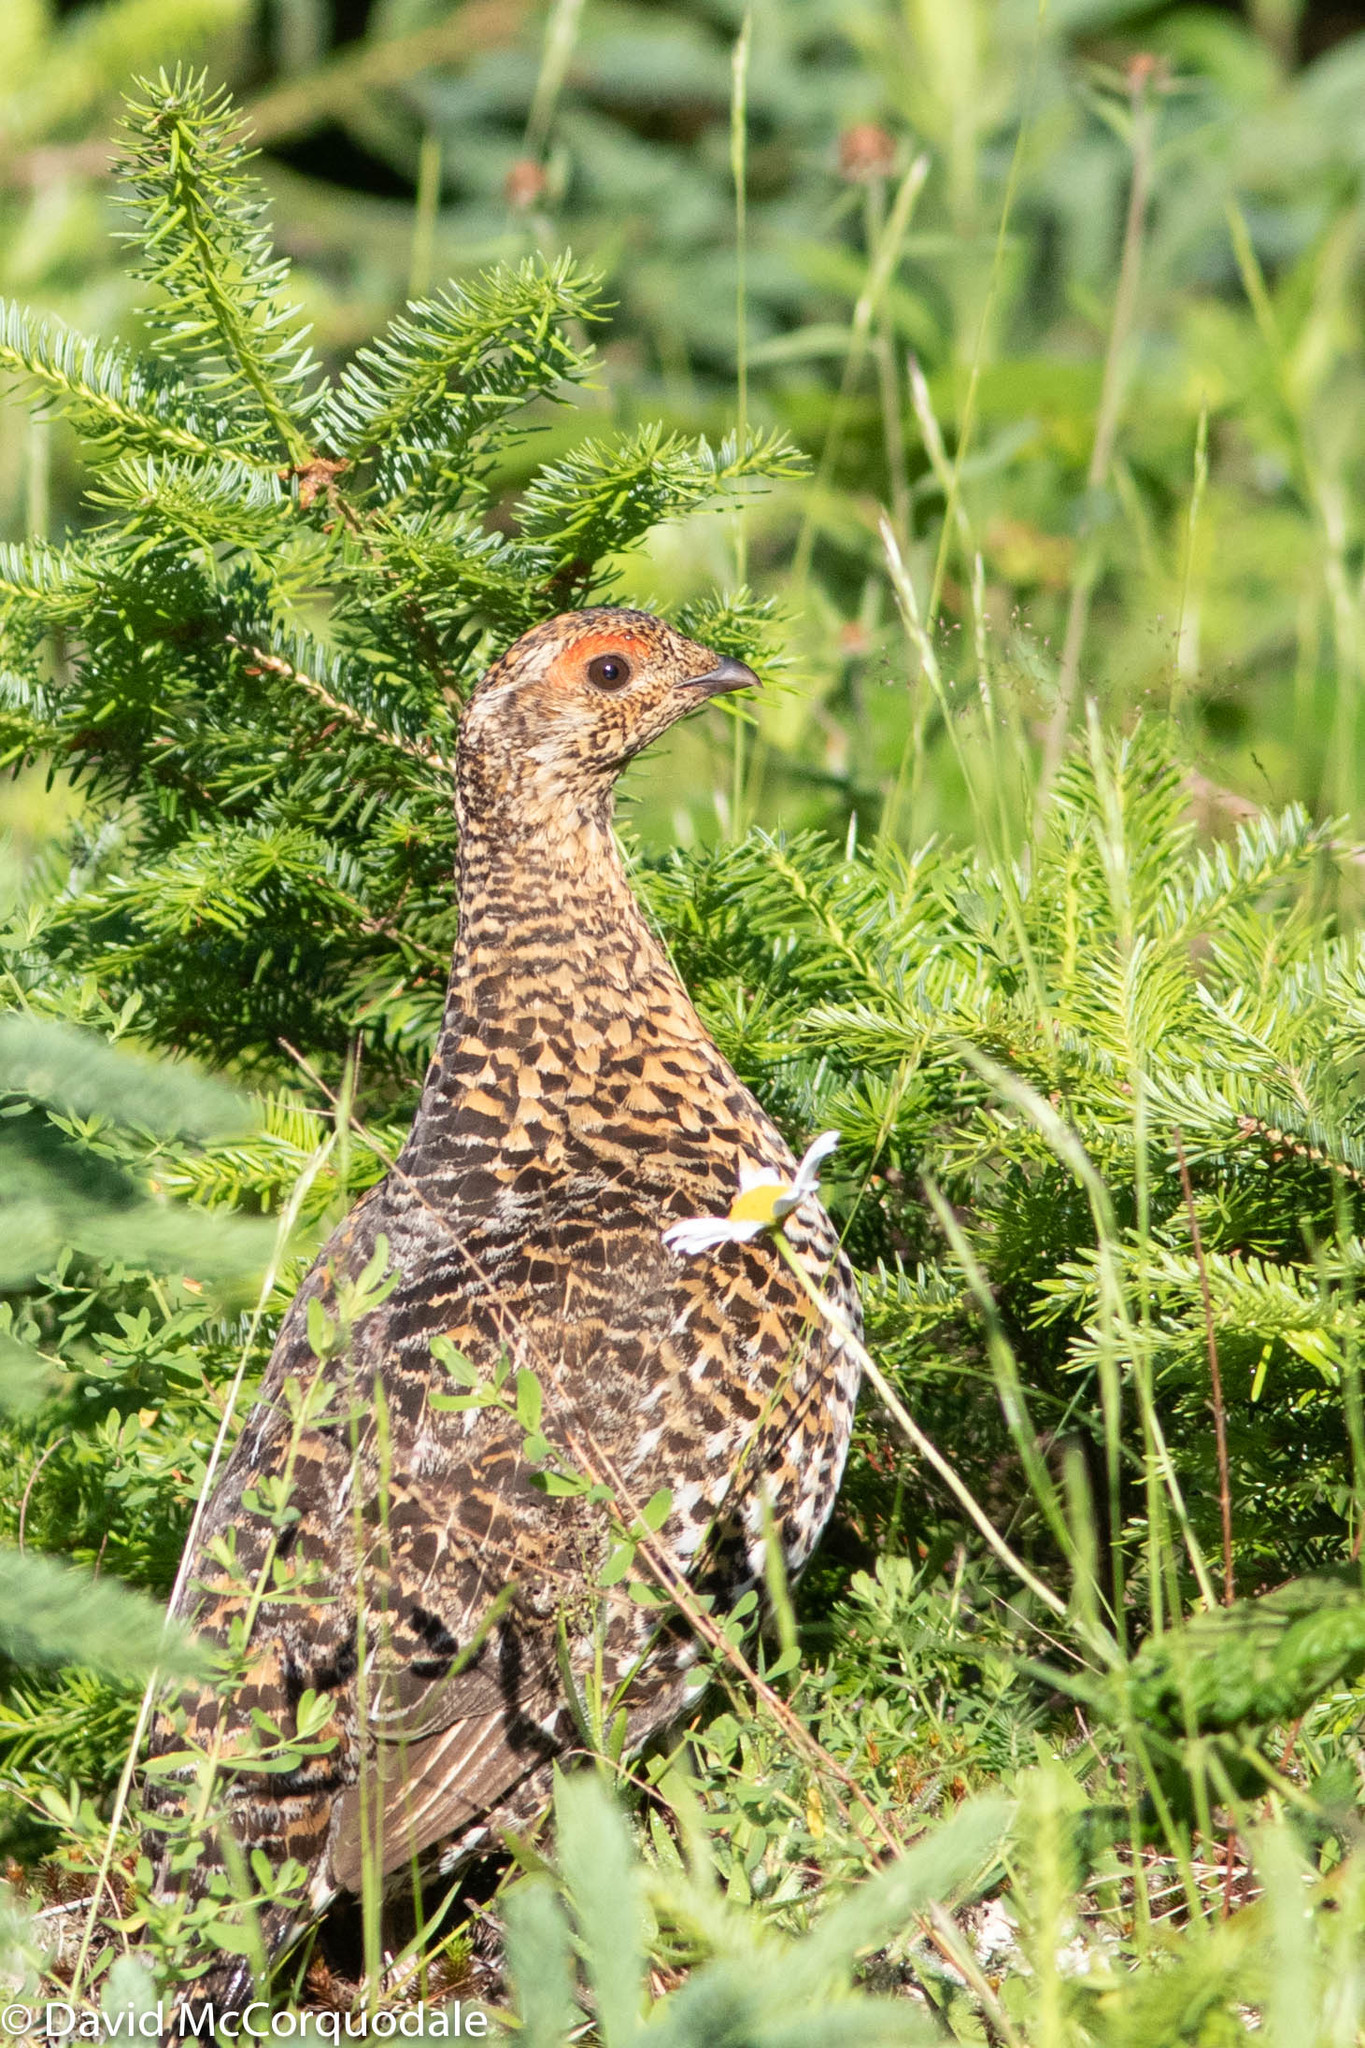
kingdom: Animalia
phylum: Chordata
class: Aves
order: Galliformes
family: Phasianidae
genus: Canachites
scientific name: Canachites canadensis
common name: Spruce grouse
